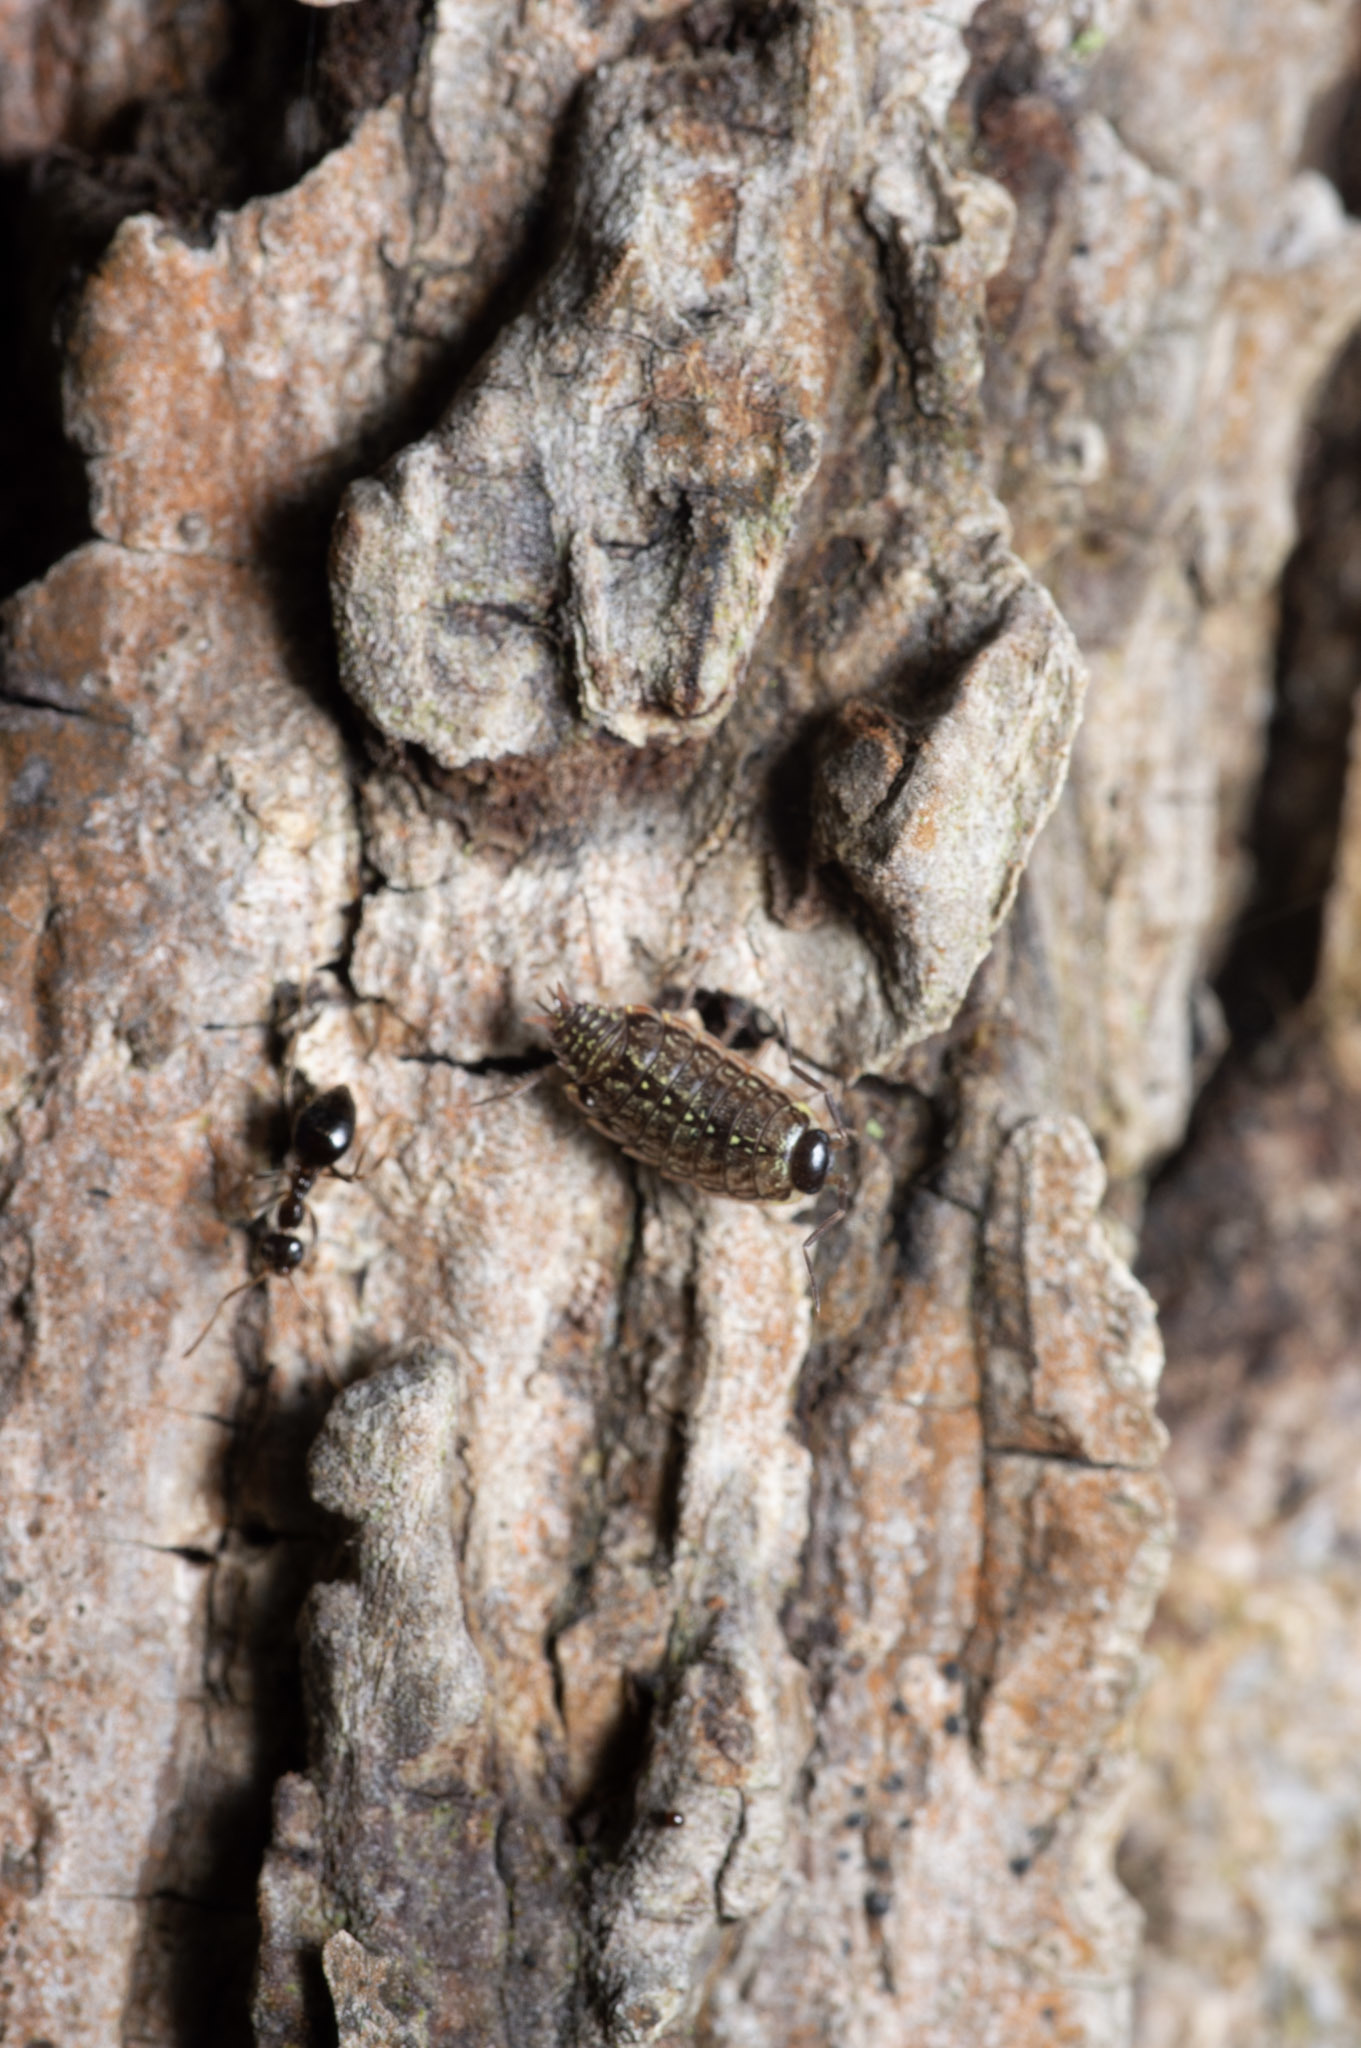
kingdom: Animalia
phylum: Arthropoda
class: Malacostraca
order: Isopoda
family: Philosciidae
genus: Philoscia
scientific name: Philoscia muscorum
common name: Common striped woodlouse
